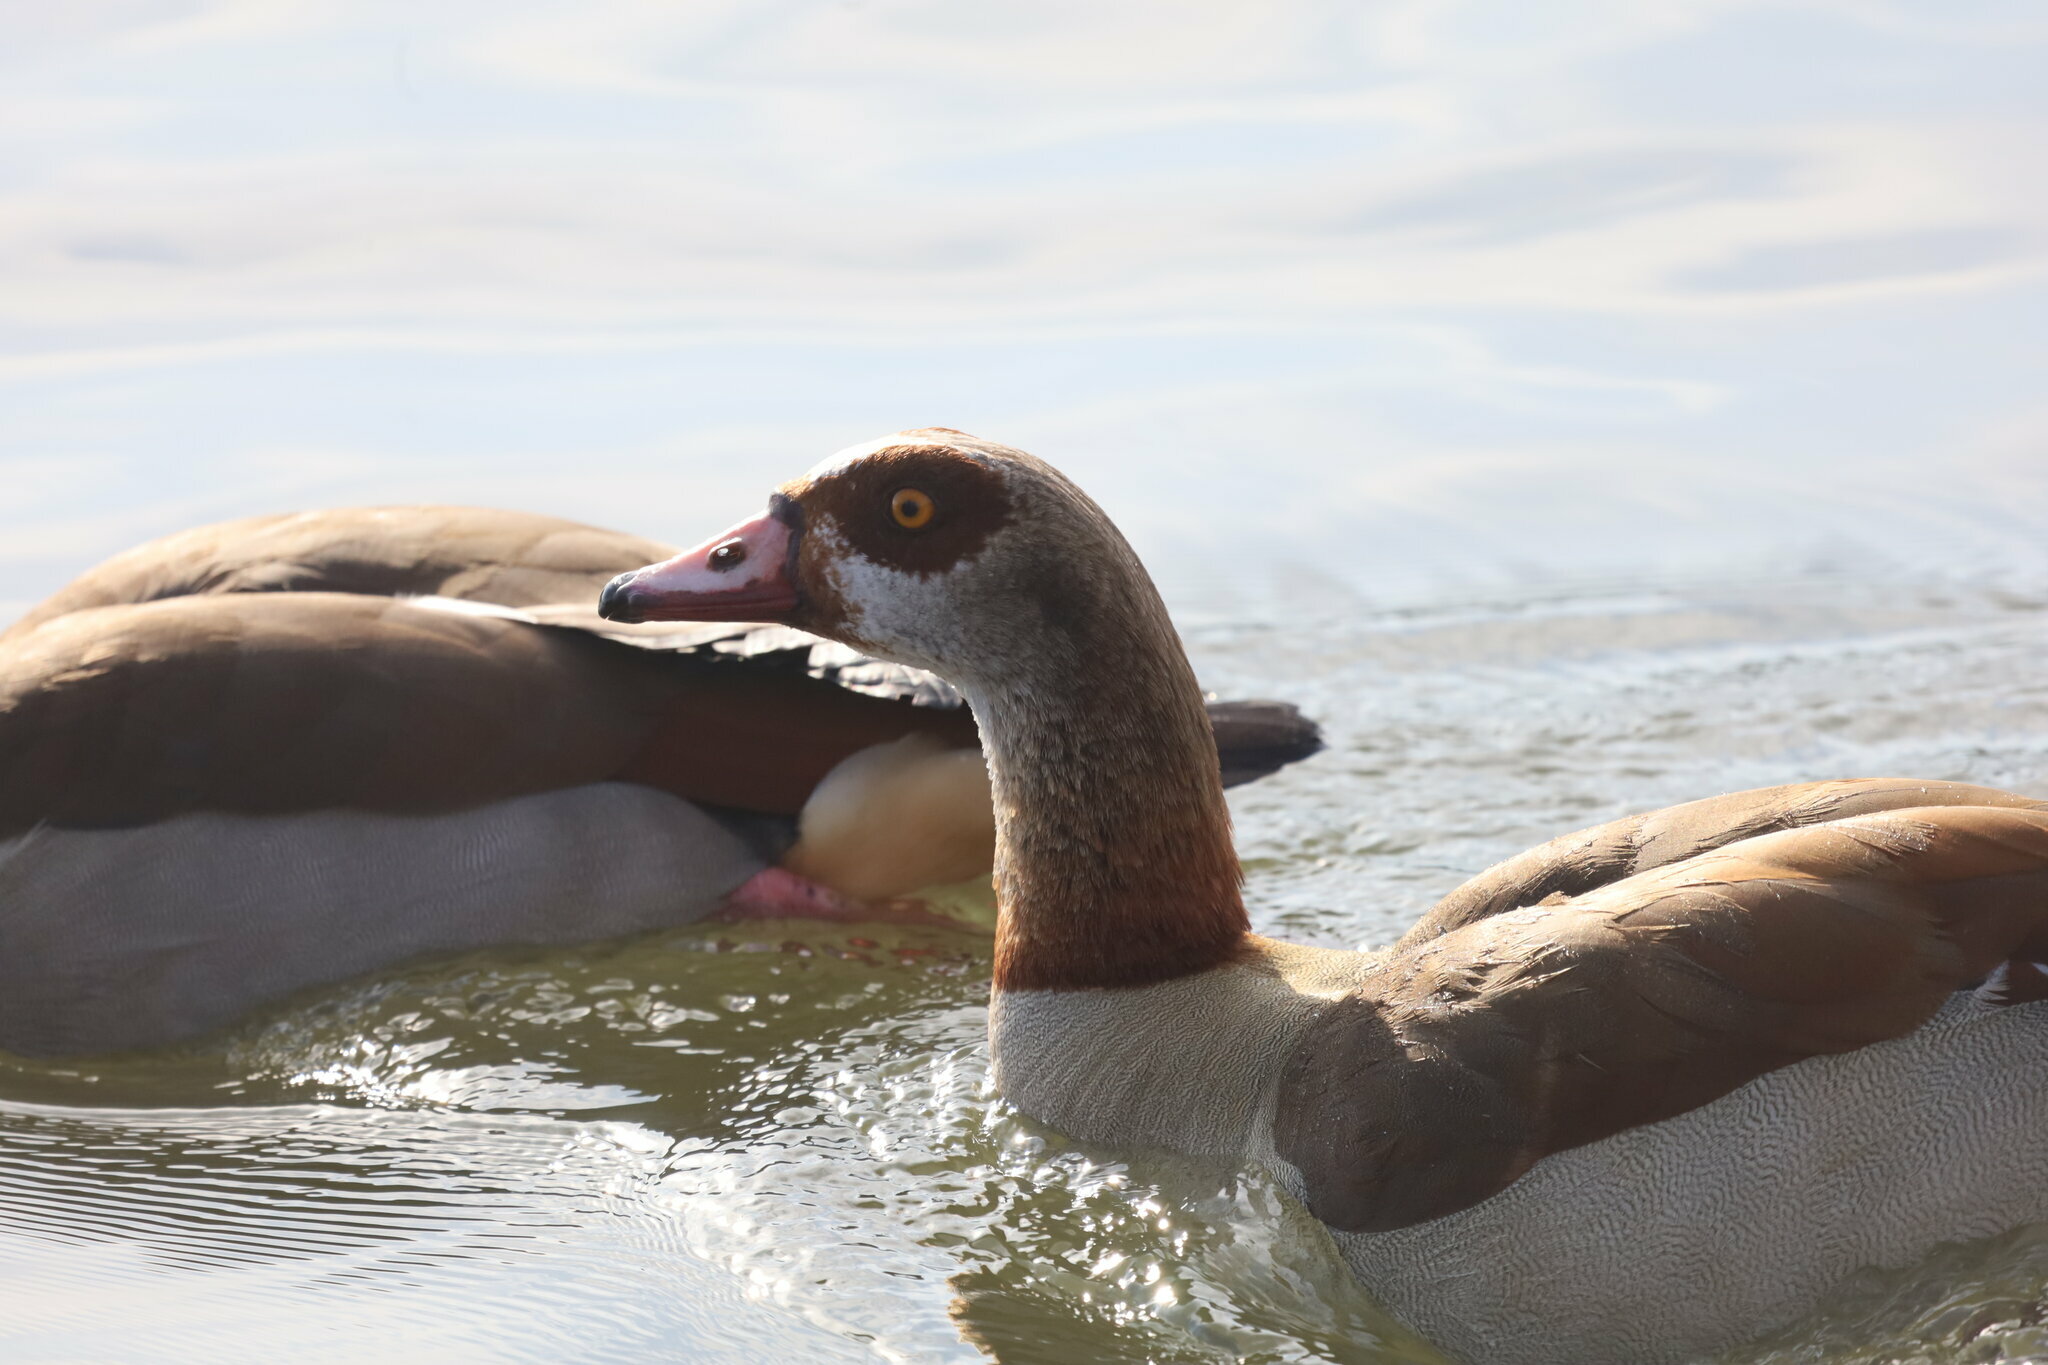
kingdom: Animalia
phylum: Chordata
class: Aves
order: Anseriformes
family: Anatidae
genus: Alopochen
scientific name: Alopochen aegyptiaca
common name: Egyptian goose
